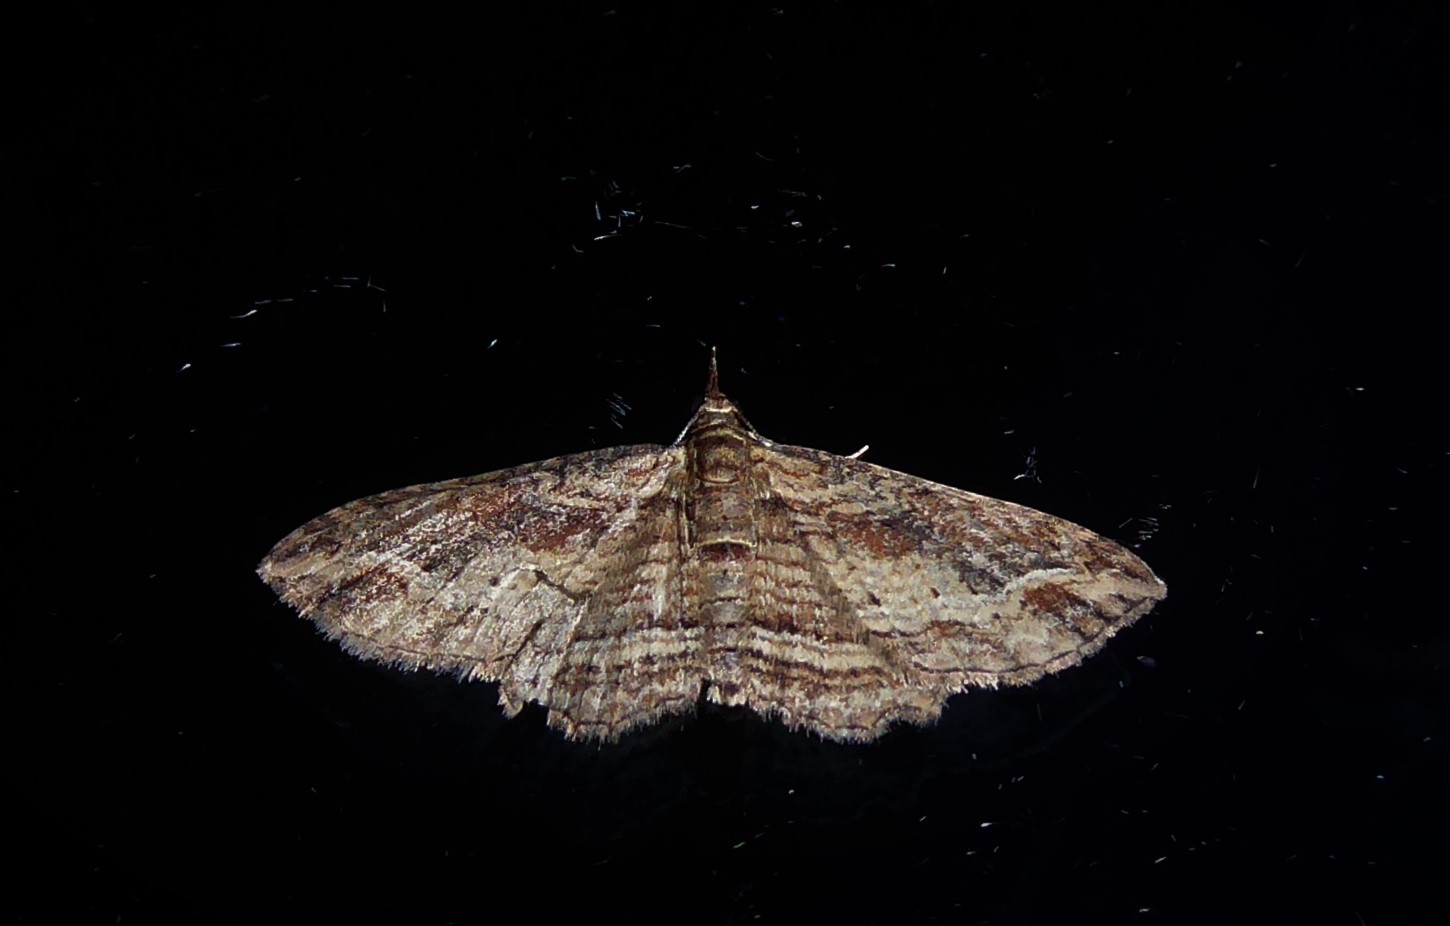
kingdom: Animalia
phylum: Arthropoda
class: Insecta
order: Lepidoptera
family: Geometridae
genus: Chloroclystis
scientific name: Chloroclystis filata
